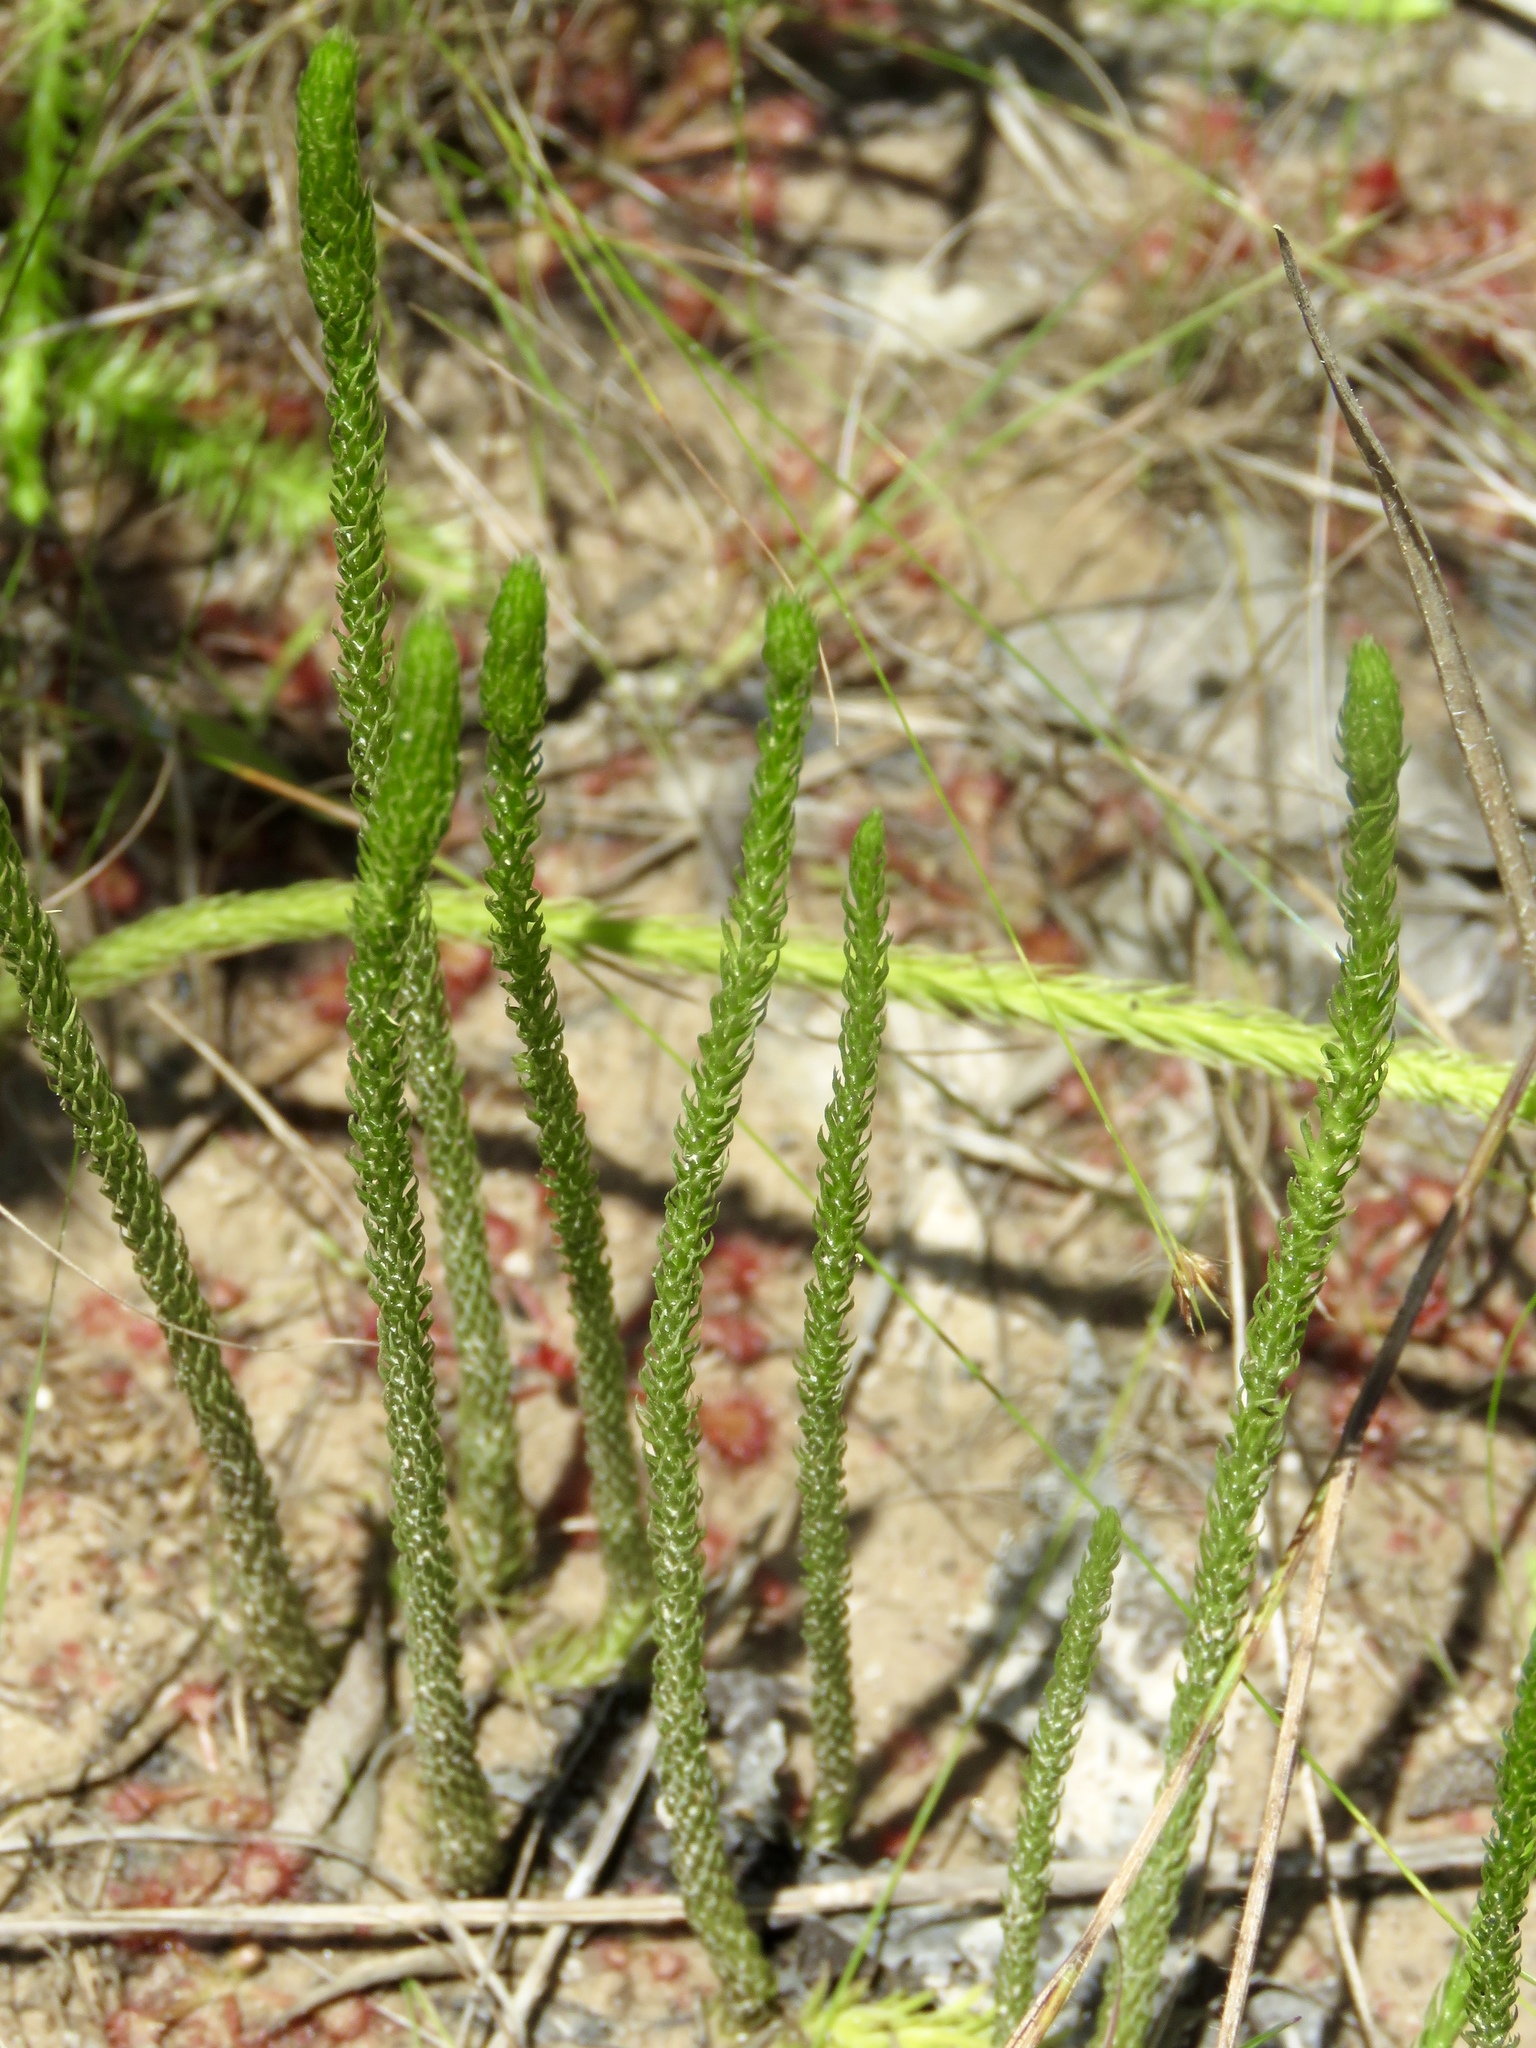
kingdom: Plantae
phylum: Tracheophyta
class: Lycopodiopsida
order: Lycopodiales
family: Lycopodiaceae
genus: Lycopodiella
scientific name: Lycopodiella appressa
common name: Appressed bog clubmoss
